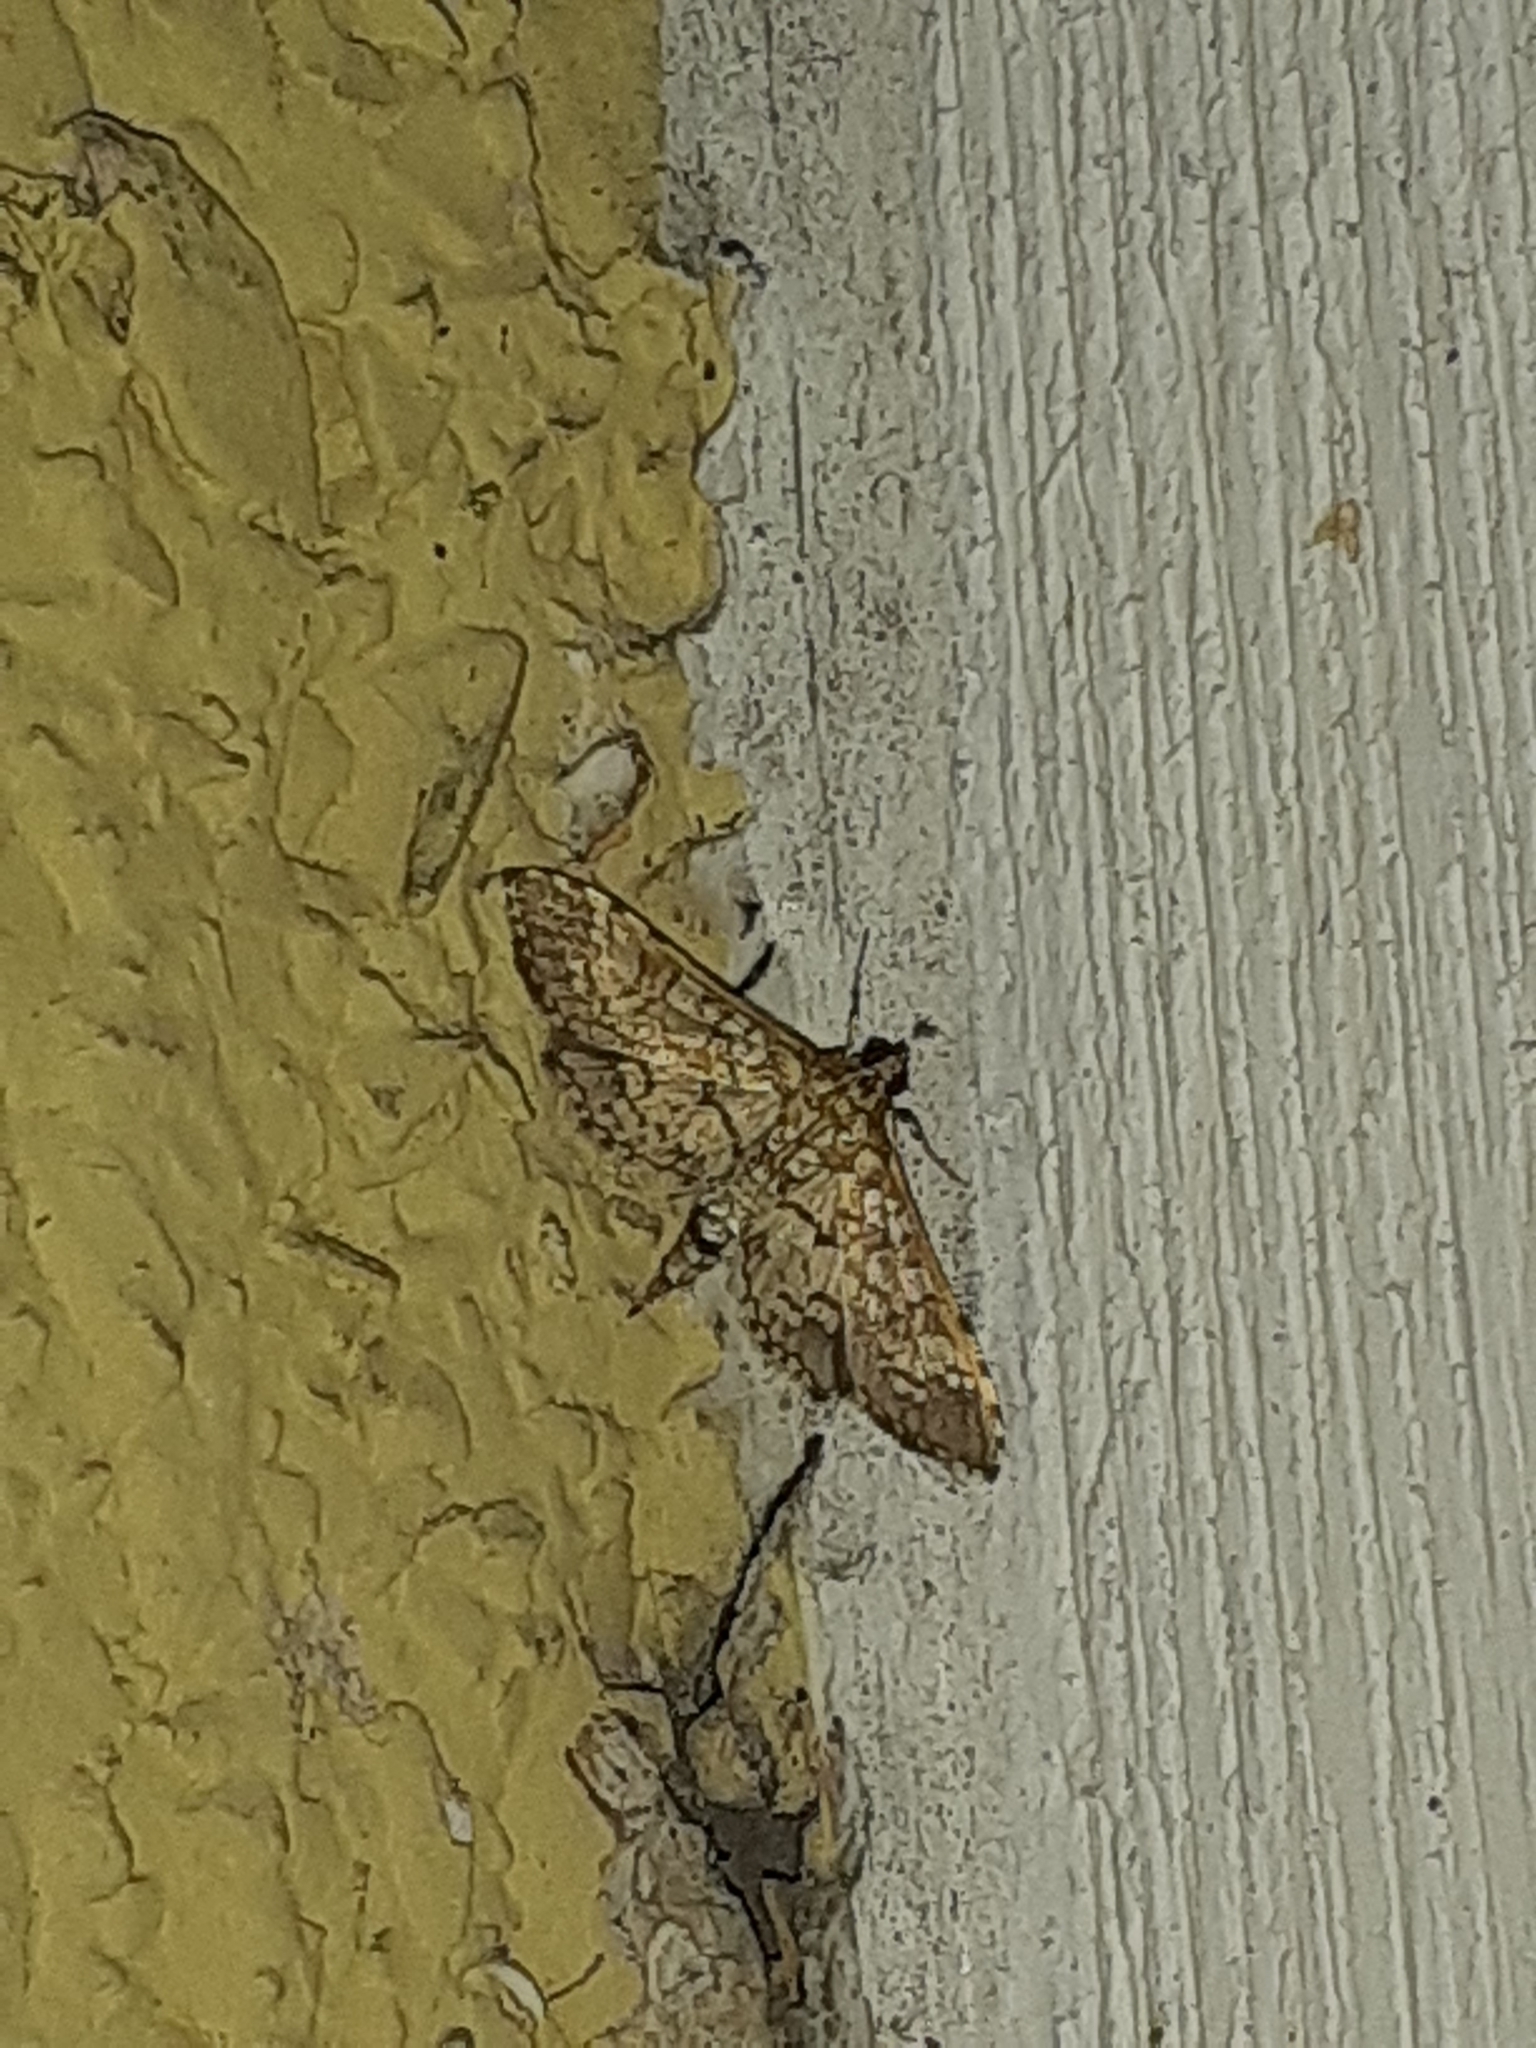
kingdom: Animalia
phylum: Arthropoda
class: Insecta
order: Lepidoptera
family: Crambidae
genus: Samea
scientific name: Samea ecclesialis
